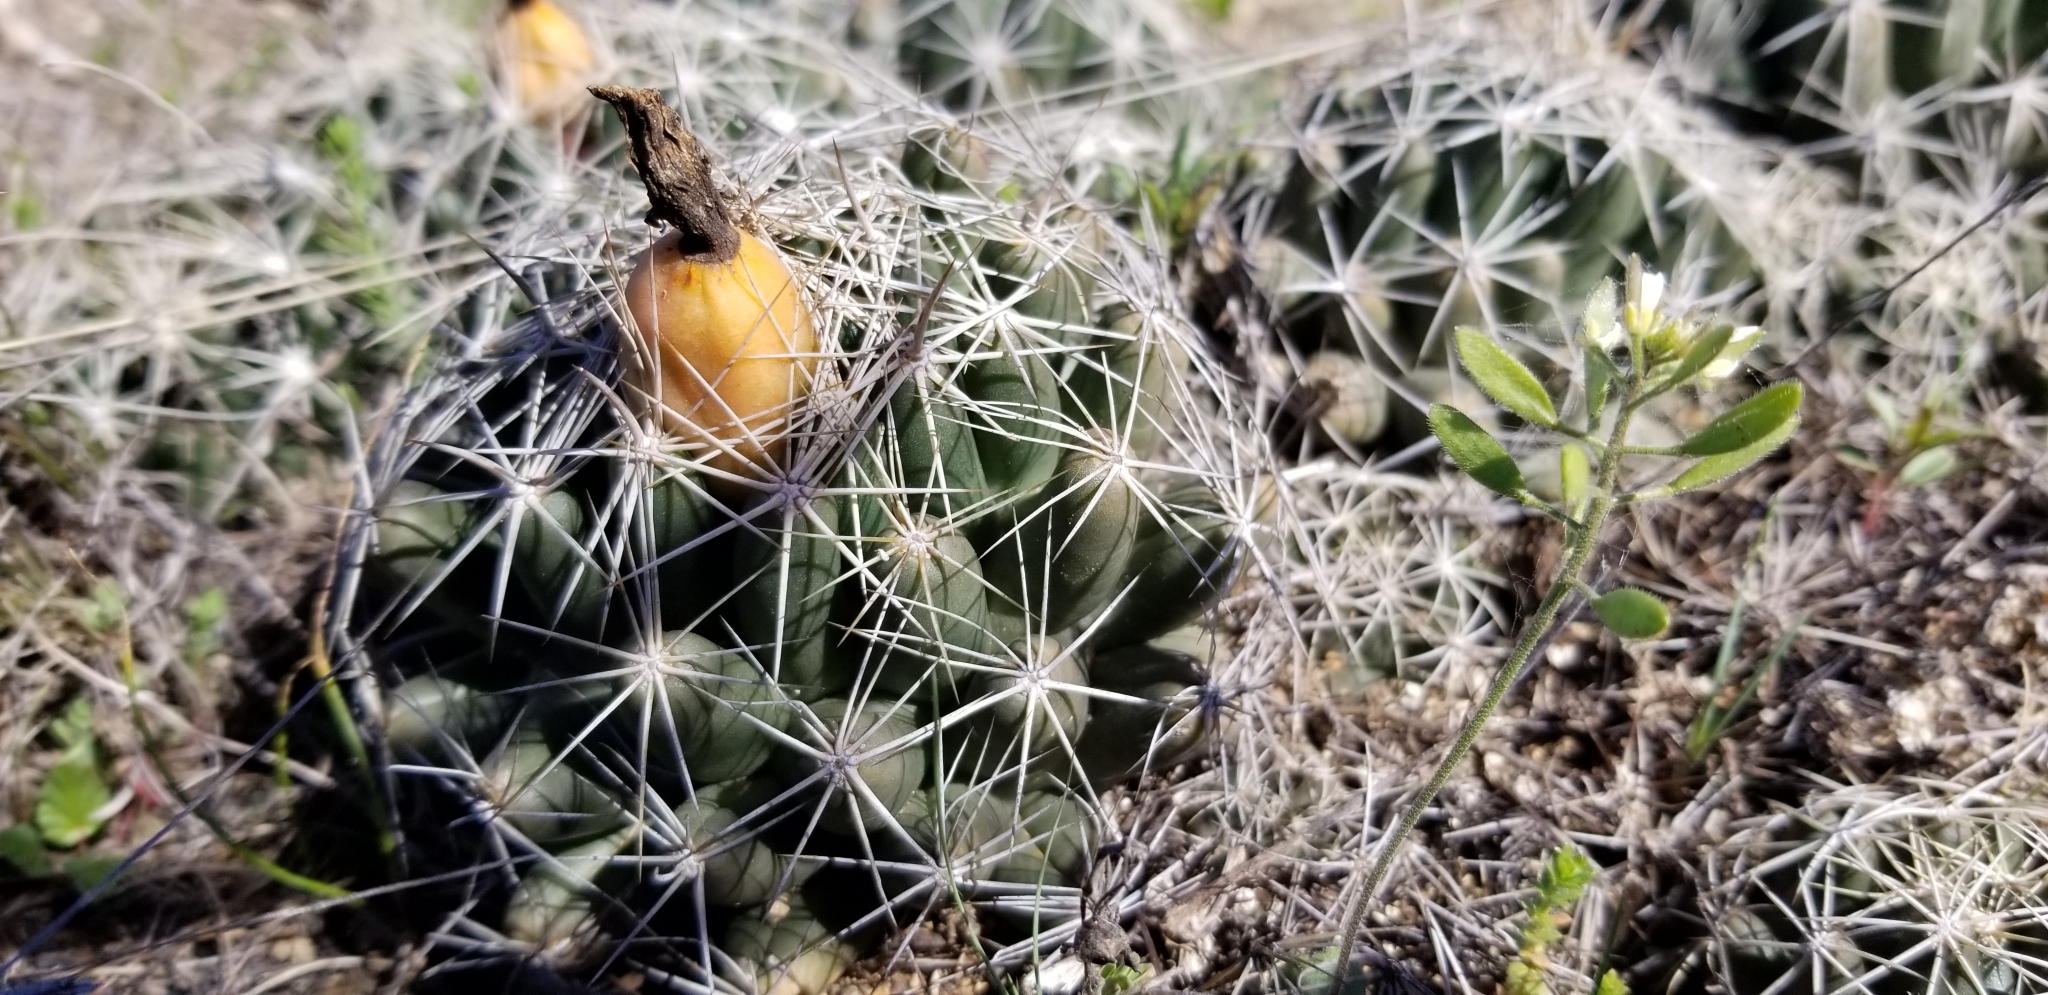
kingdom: Plantae
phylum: Tracheophyta
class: Magnoliopsida
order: Caryophyllales
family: Cactaceae
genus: Coryphantha
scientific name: Coryphantha sulcata
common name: Finger cactus
